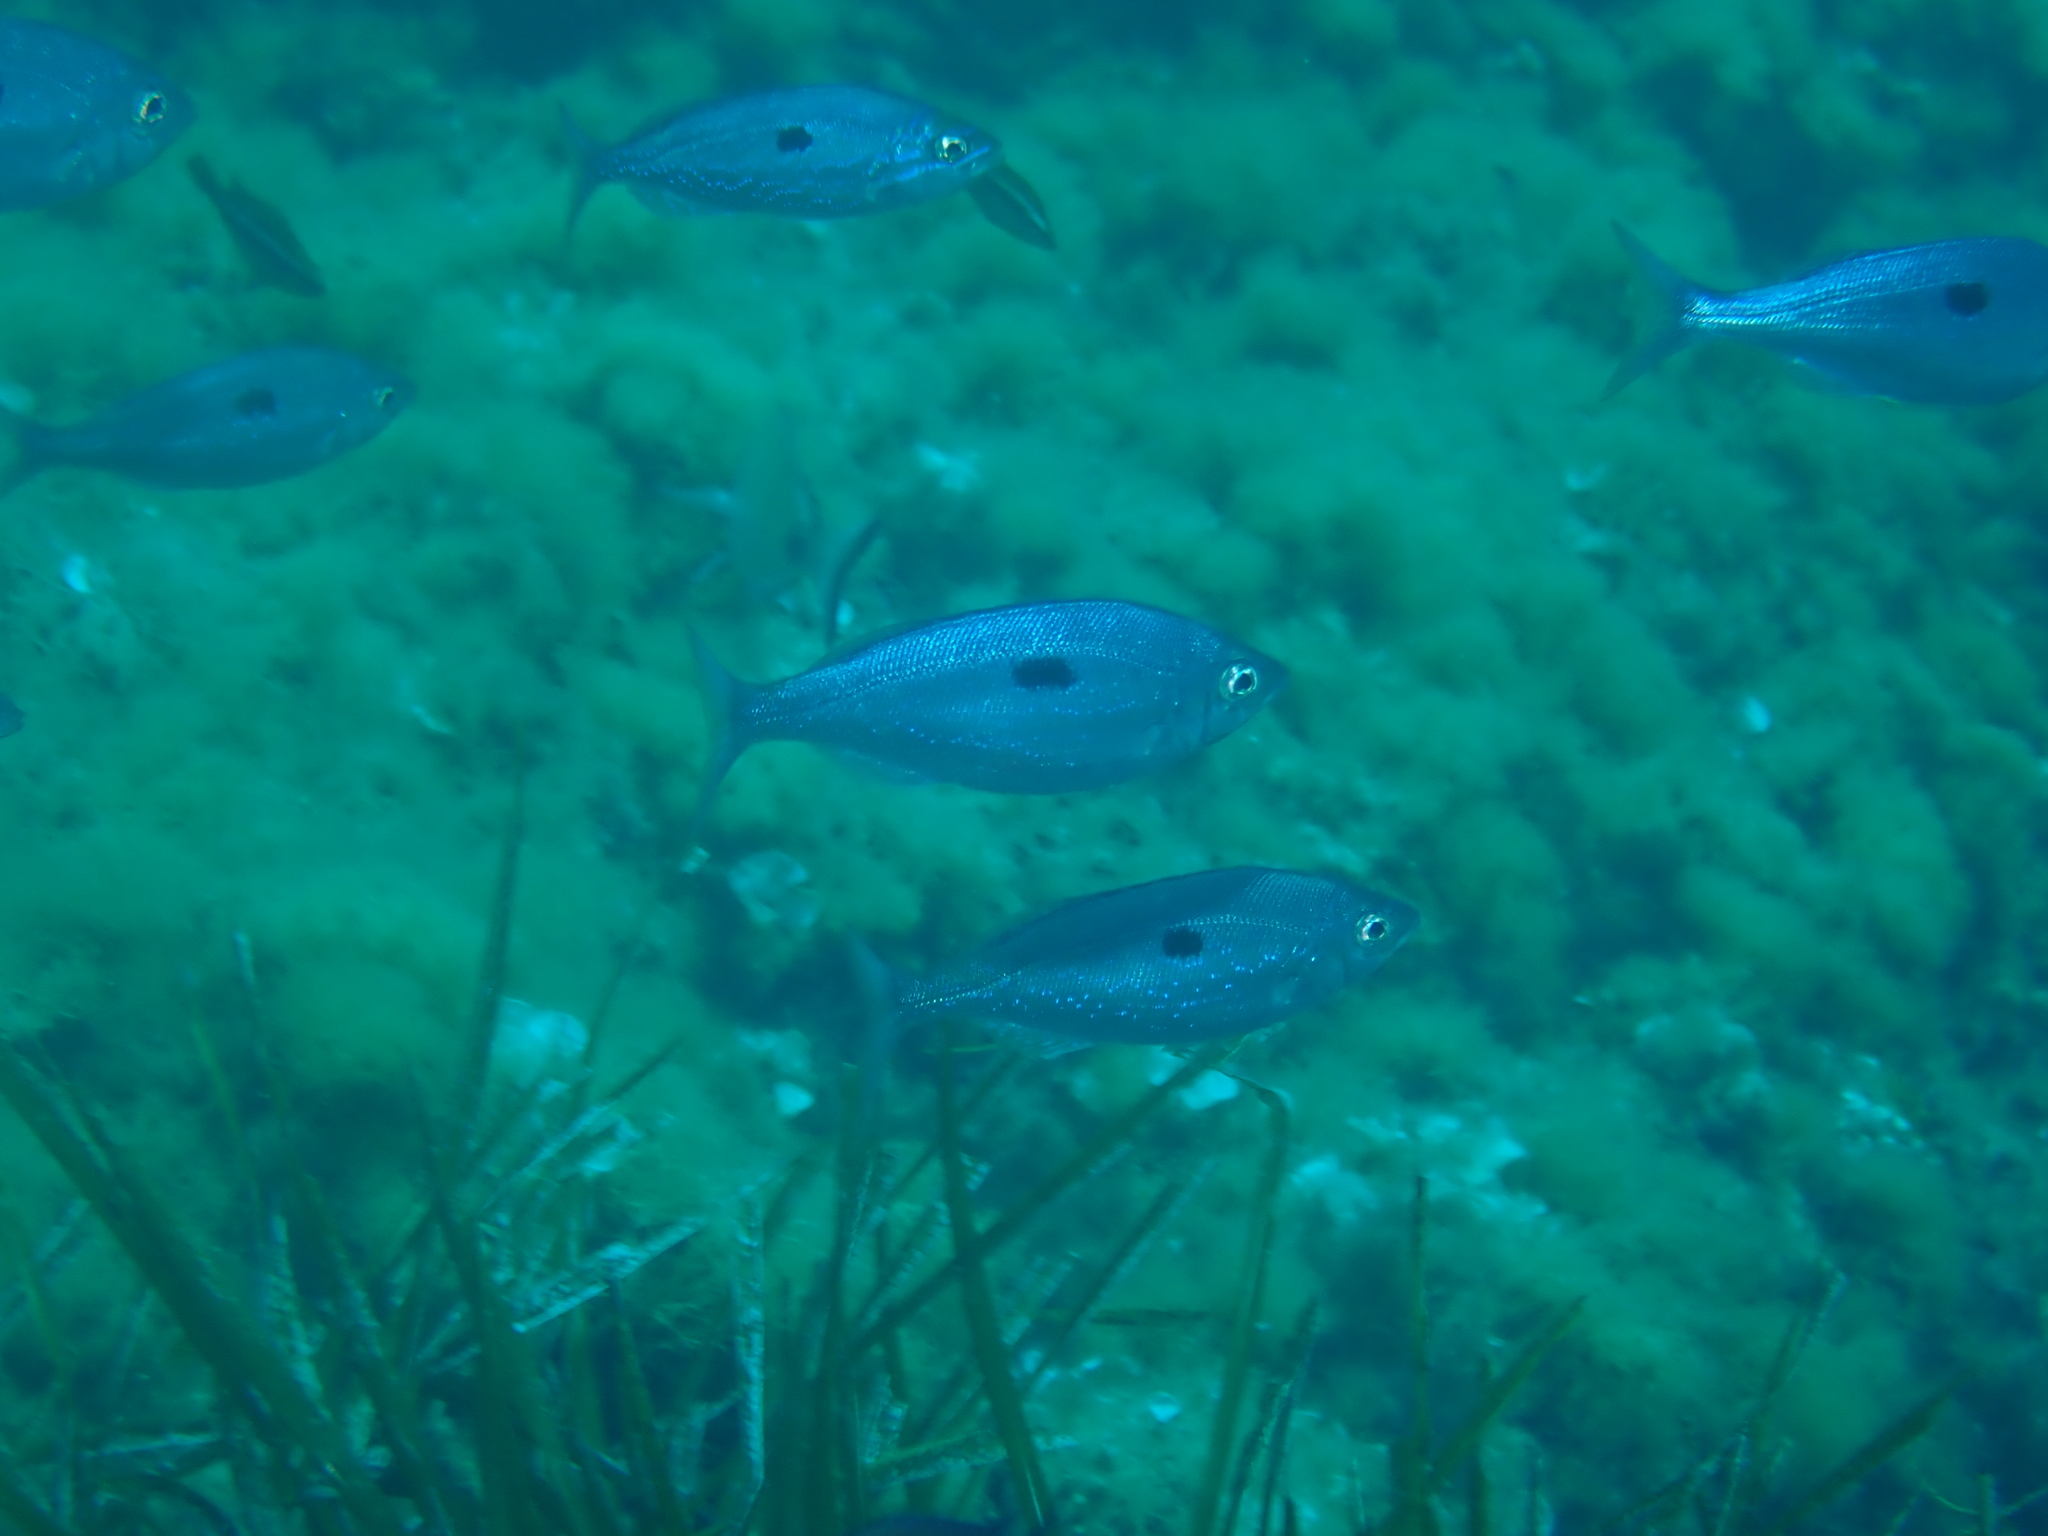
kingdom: Animalia
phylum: Chordata
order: Perciformes
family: Sparidae
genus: Spicara
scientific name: Spicara maena
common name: Blotched picarel
